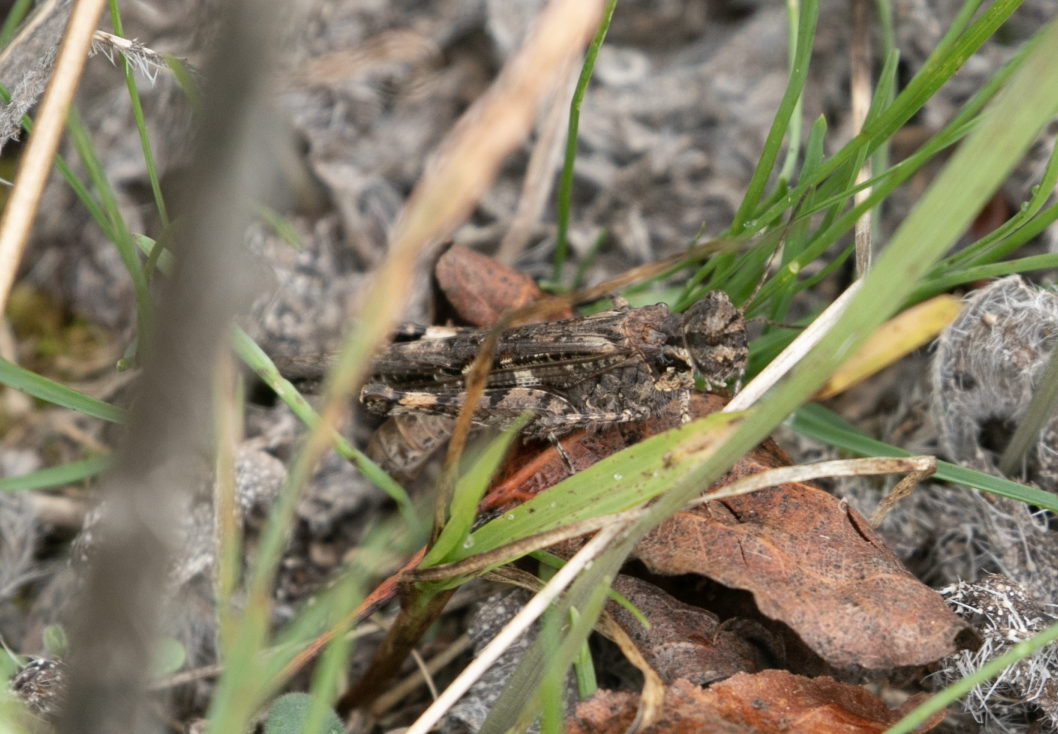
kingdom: Animalia
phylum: Arthropoda
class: Insecta
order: Orthoptera
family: Acrididae
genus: Acrotylus
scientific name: Acrotylus patruelis
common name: Slender burrowing grasshopper
